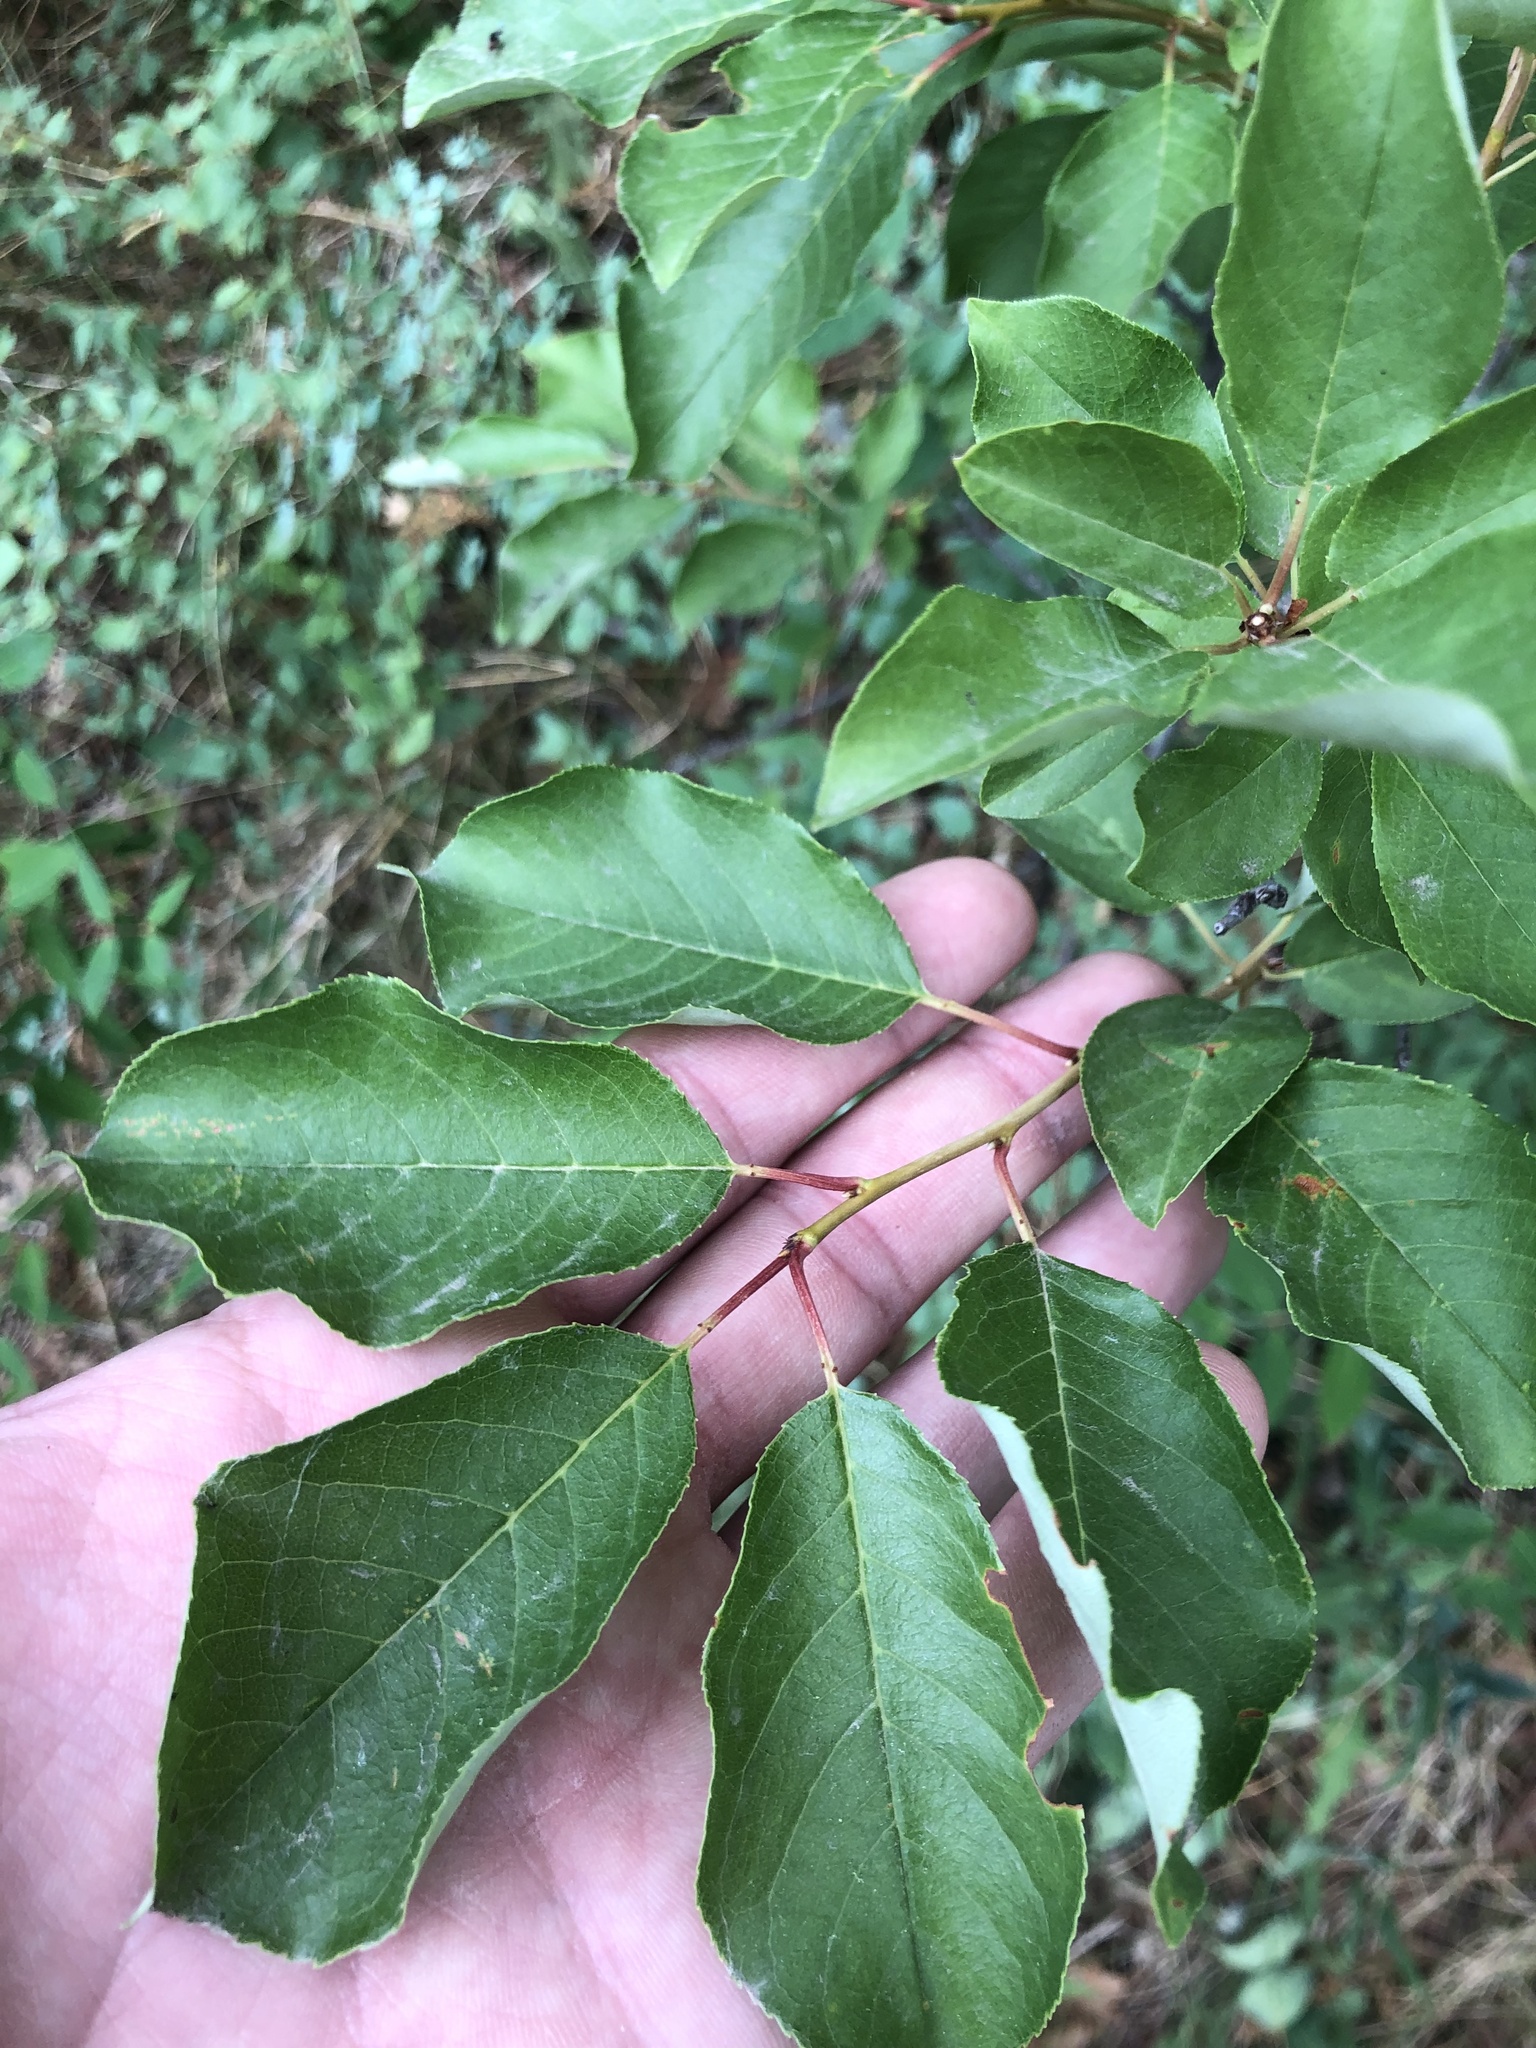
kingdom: Plantae
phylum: Tracheophyta
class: Magnoliopsida
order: Rosales
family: Rosaceae
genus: Prunus
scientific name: Prunus virginiana
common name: Chokecherry
